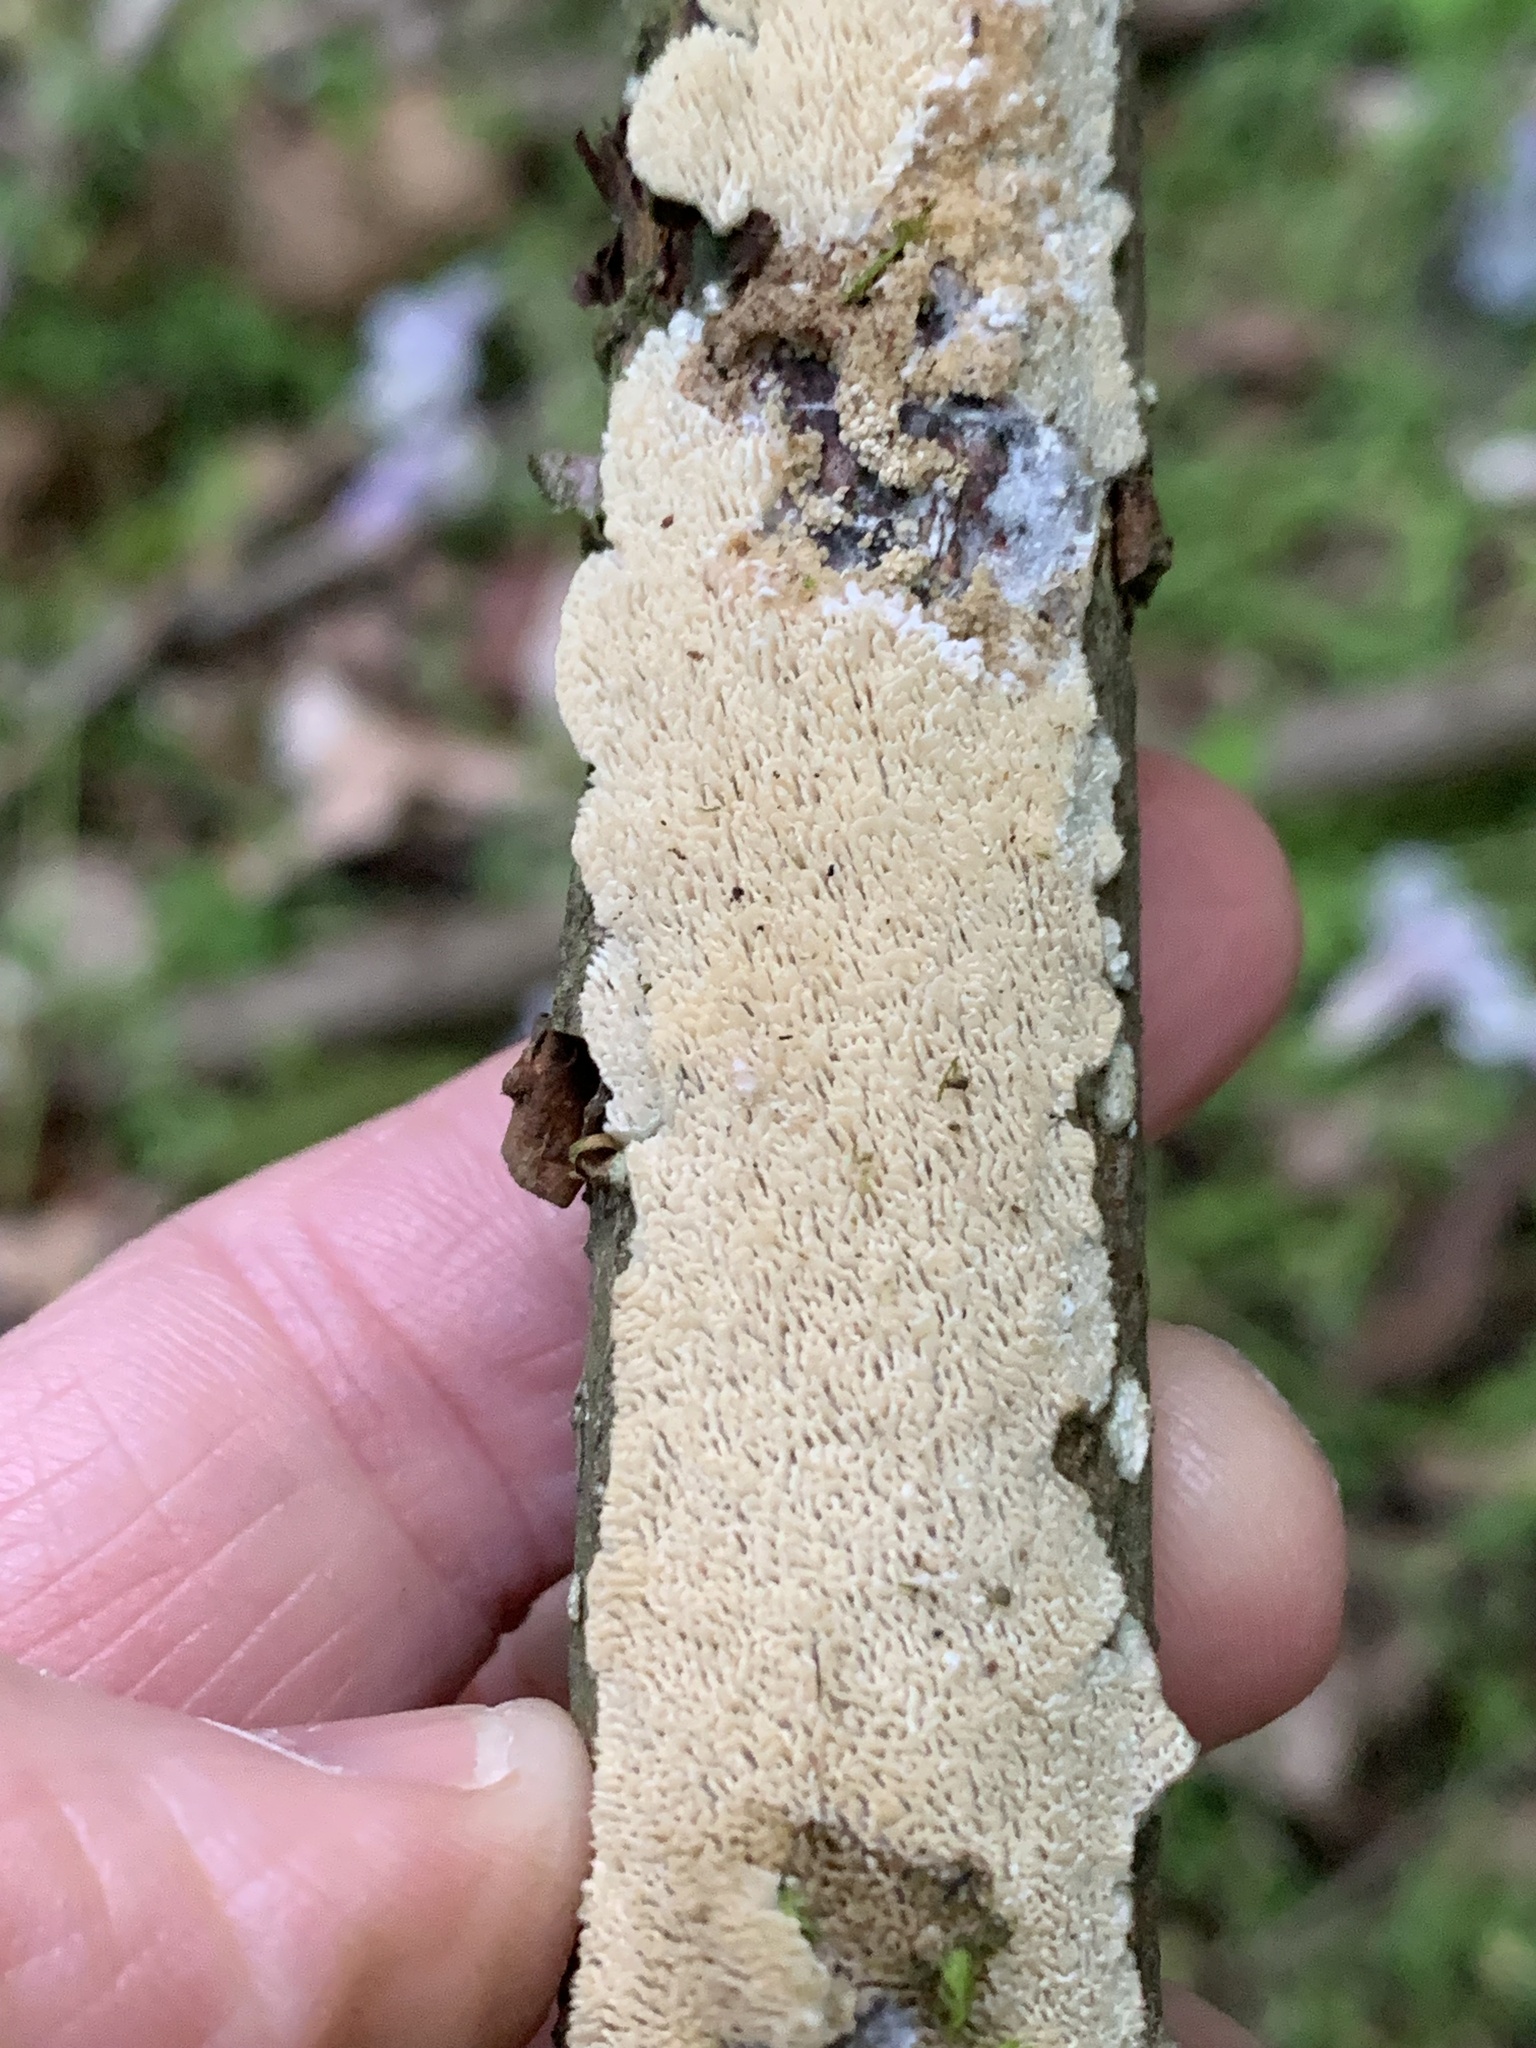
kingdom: Fungi
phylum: Basidiomycota
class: Agaricomycetes
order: Polyporales
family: Irpicaceae
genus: Irpex
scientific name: Irpex lacteus
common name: Milk-white toothed polypore
